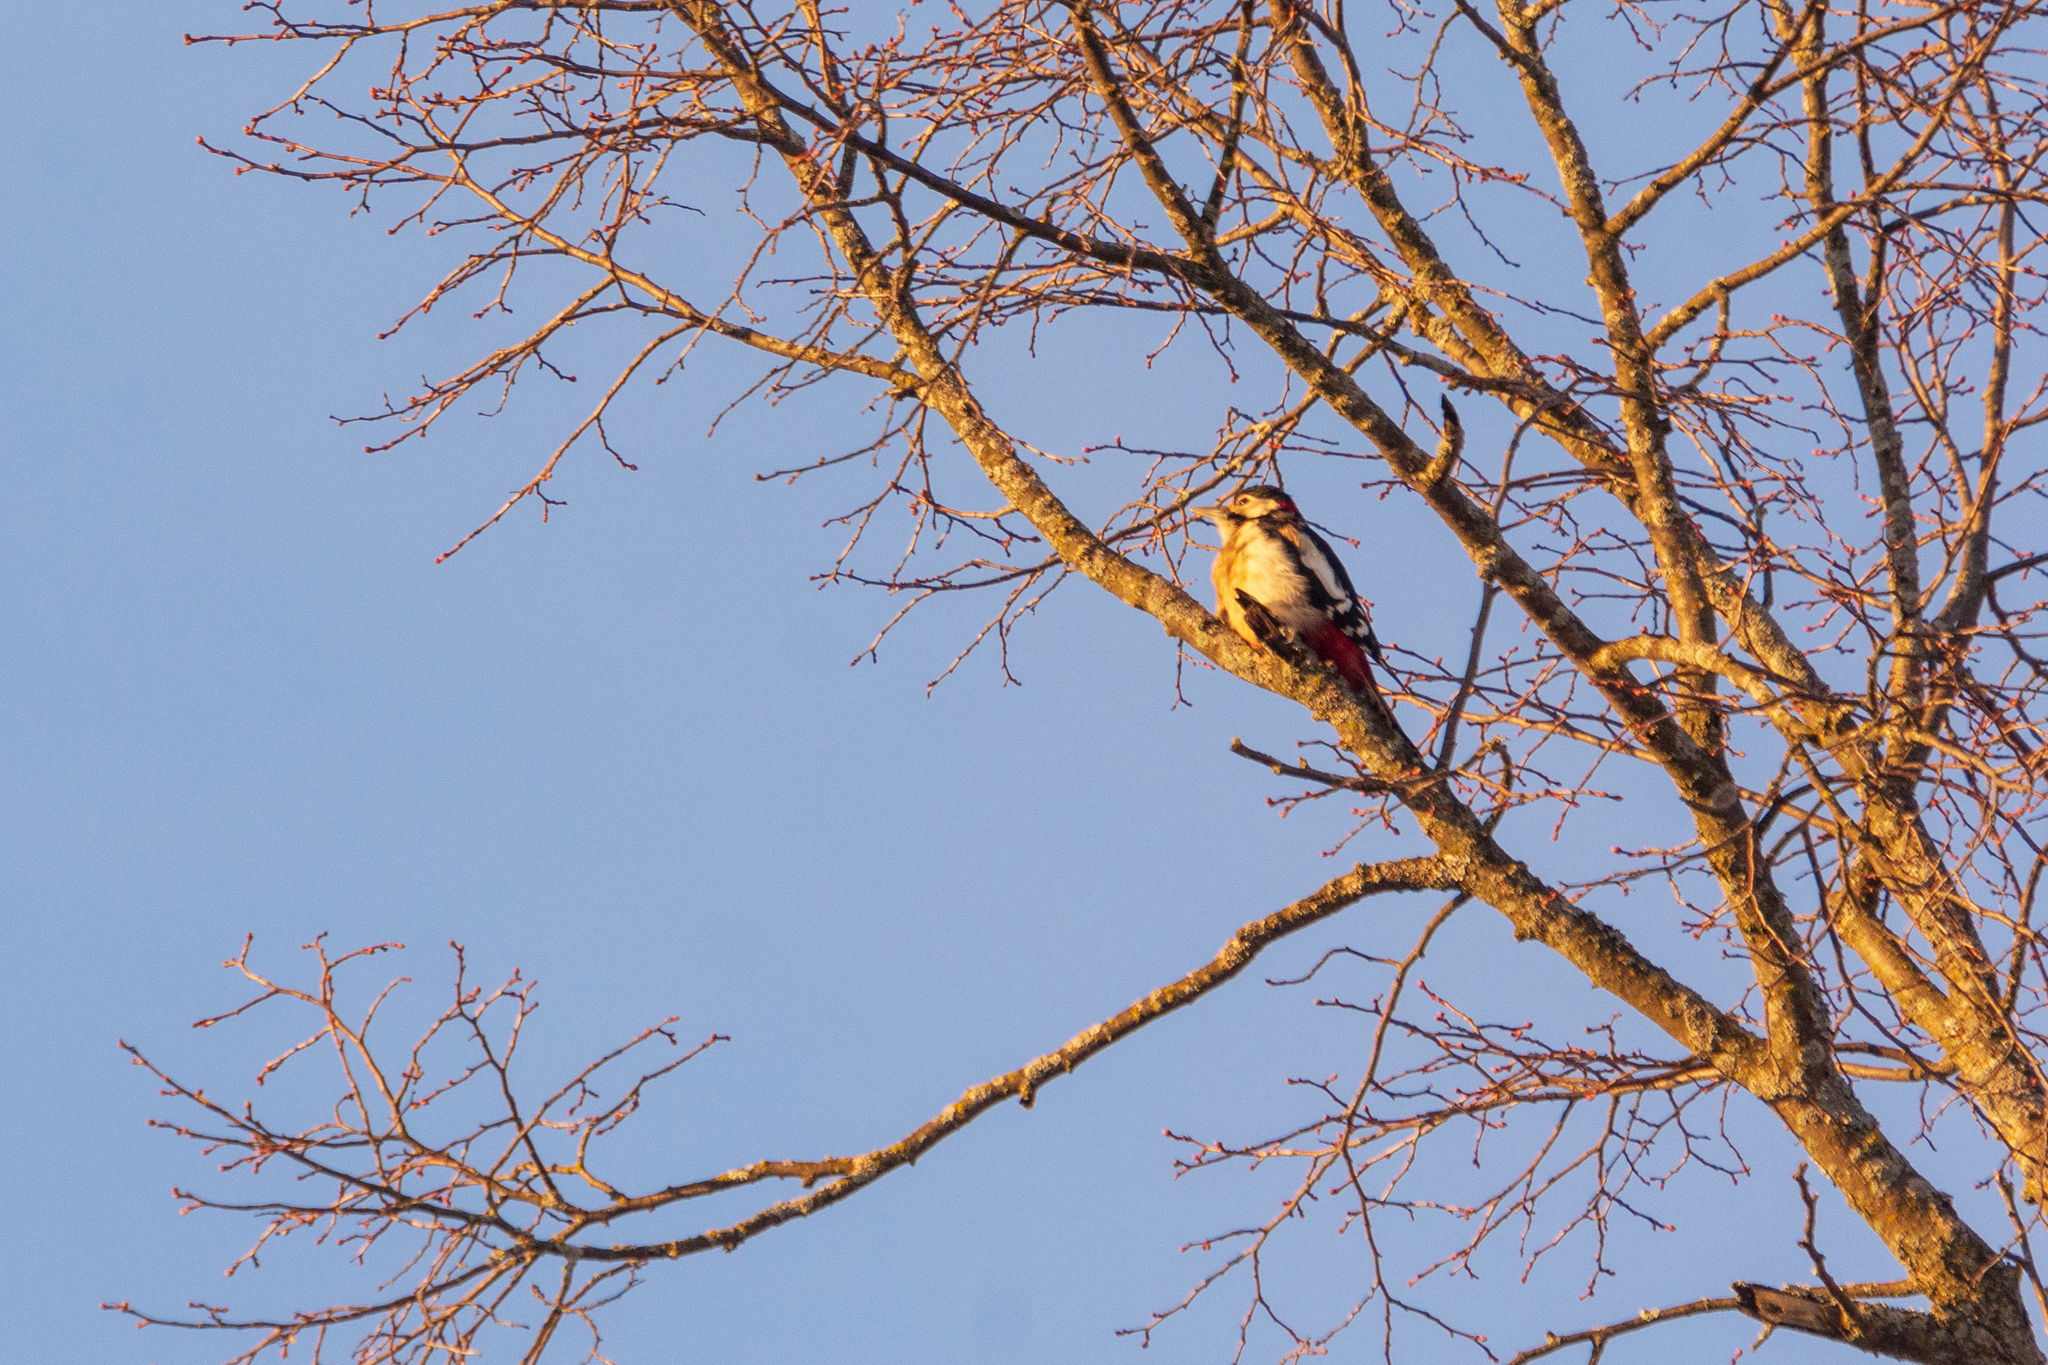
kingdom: Animalia
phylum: Chordata
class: Aves
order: Piciformes
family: Picidae
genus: Dendrocopos
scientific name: Dendrocopos major
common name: Great spotted woodpecker
